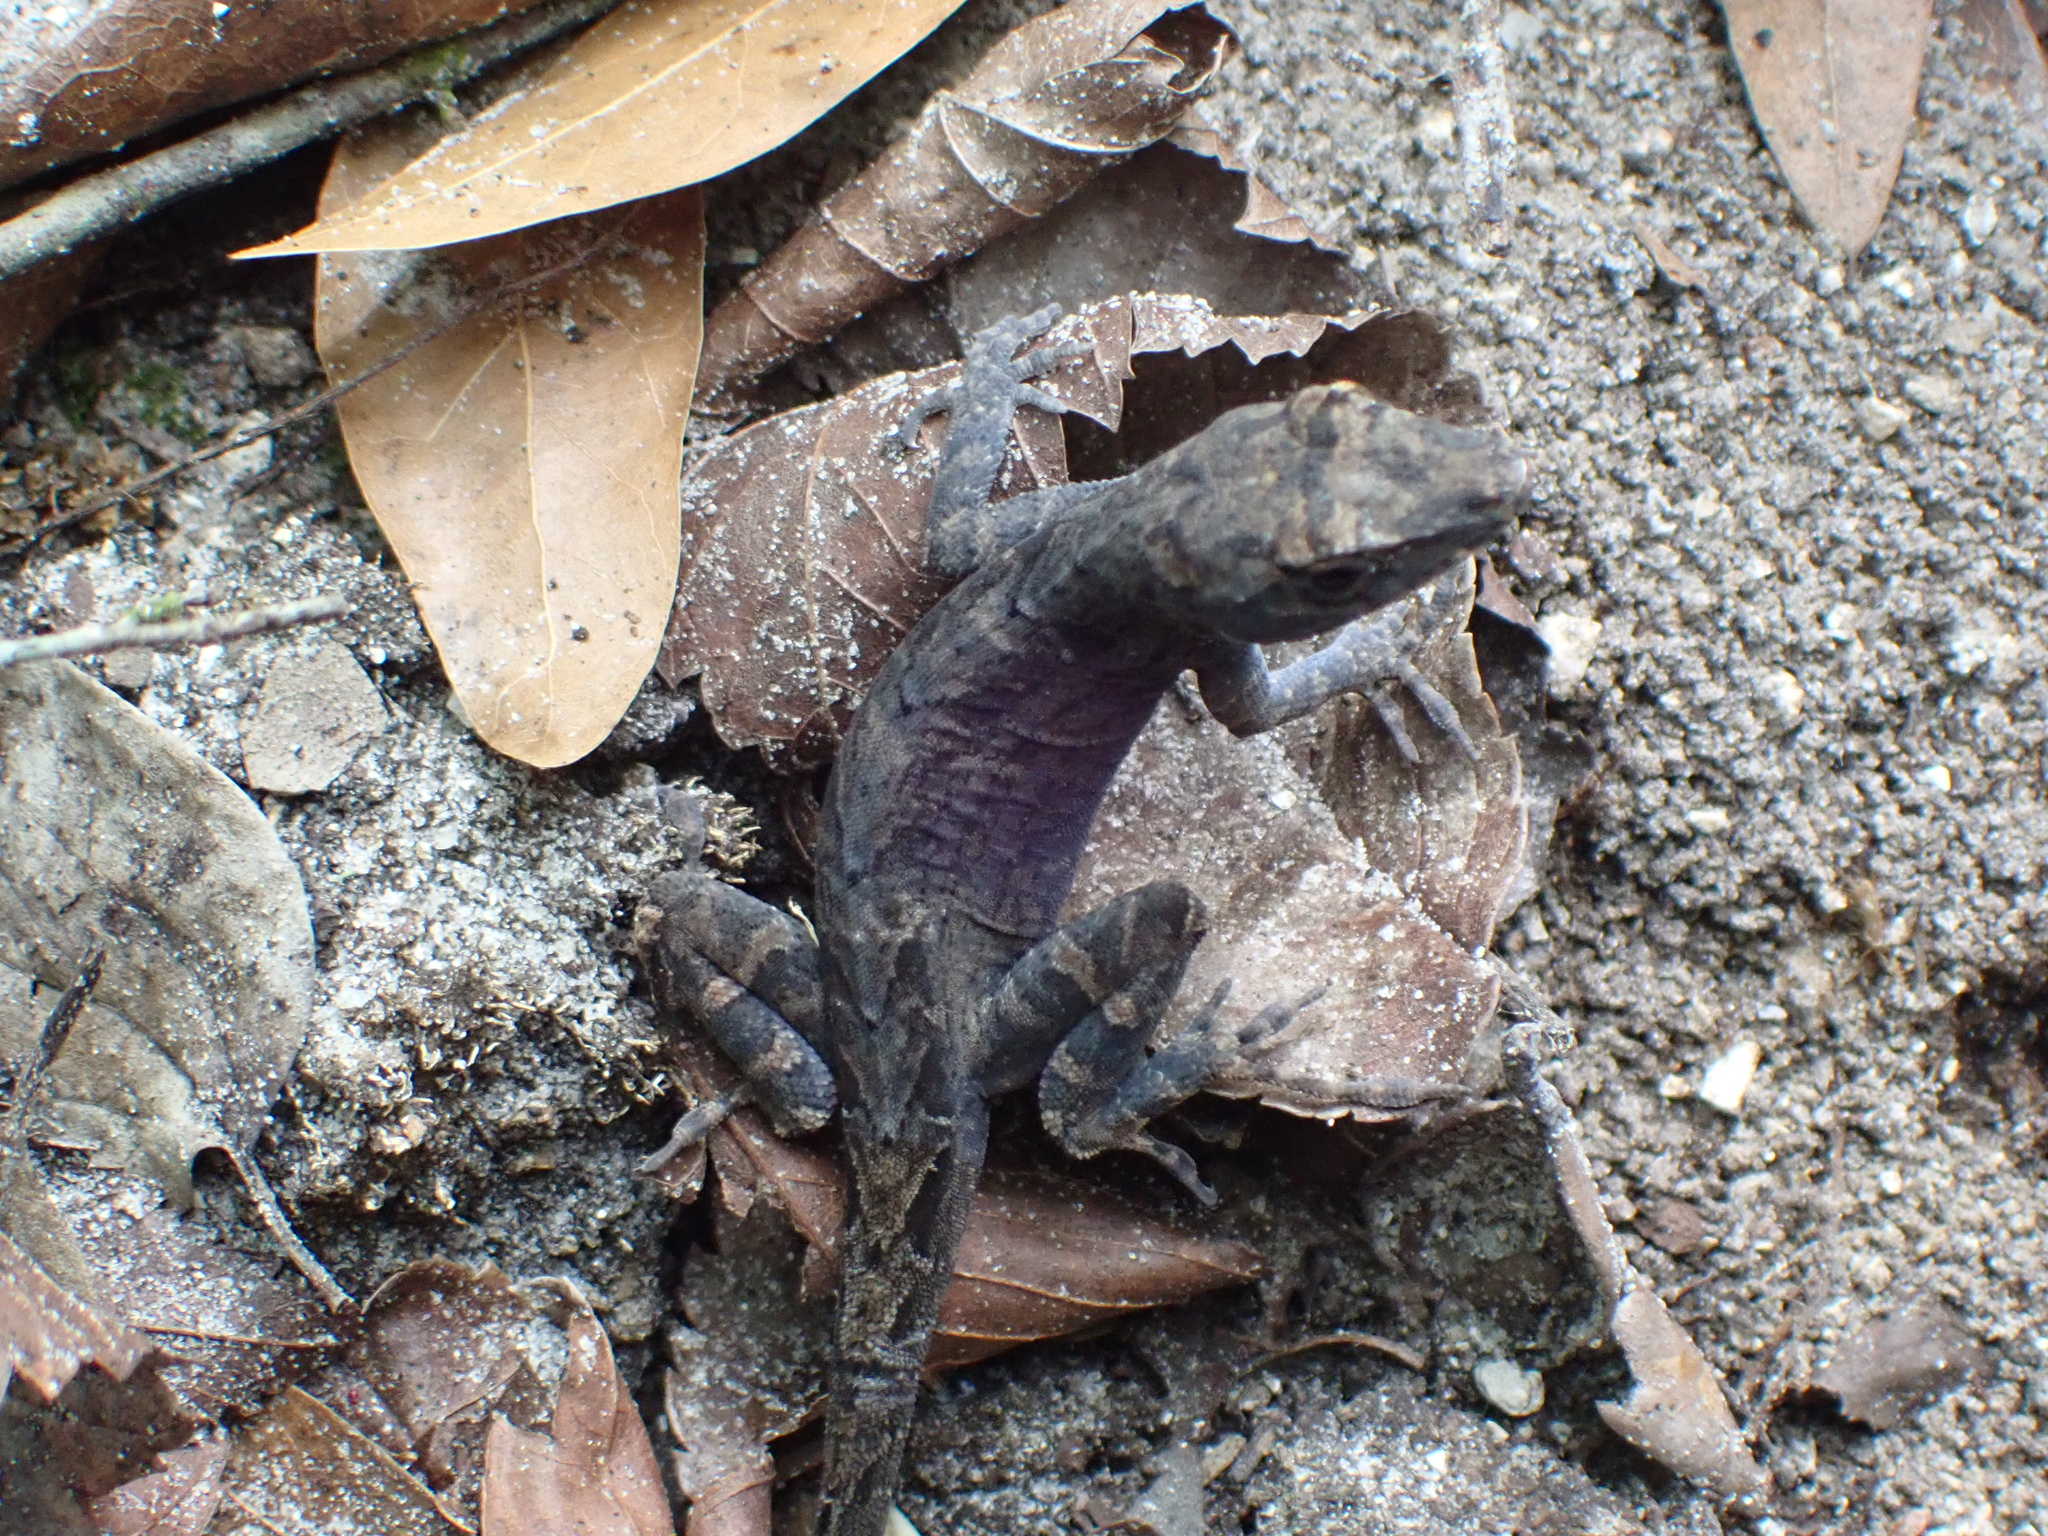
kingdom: Animalia
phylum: Chordata
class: Squamata
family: Dactyloidae
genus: Anolis
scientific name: Anolis sagrei
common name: Brown anole
